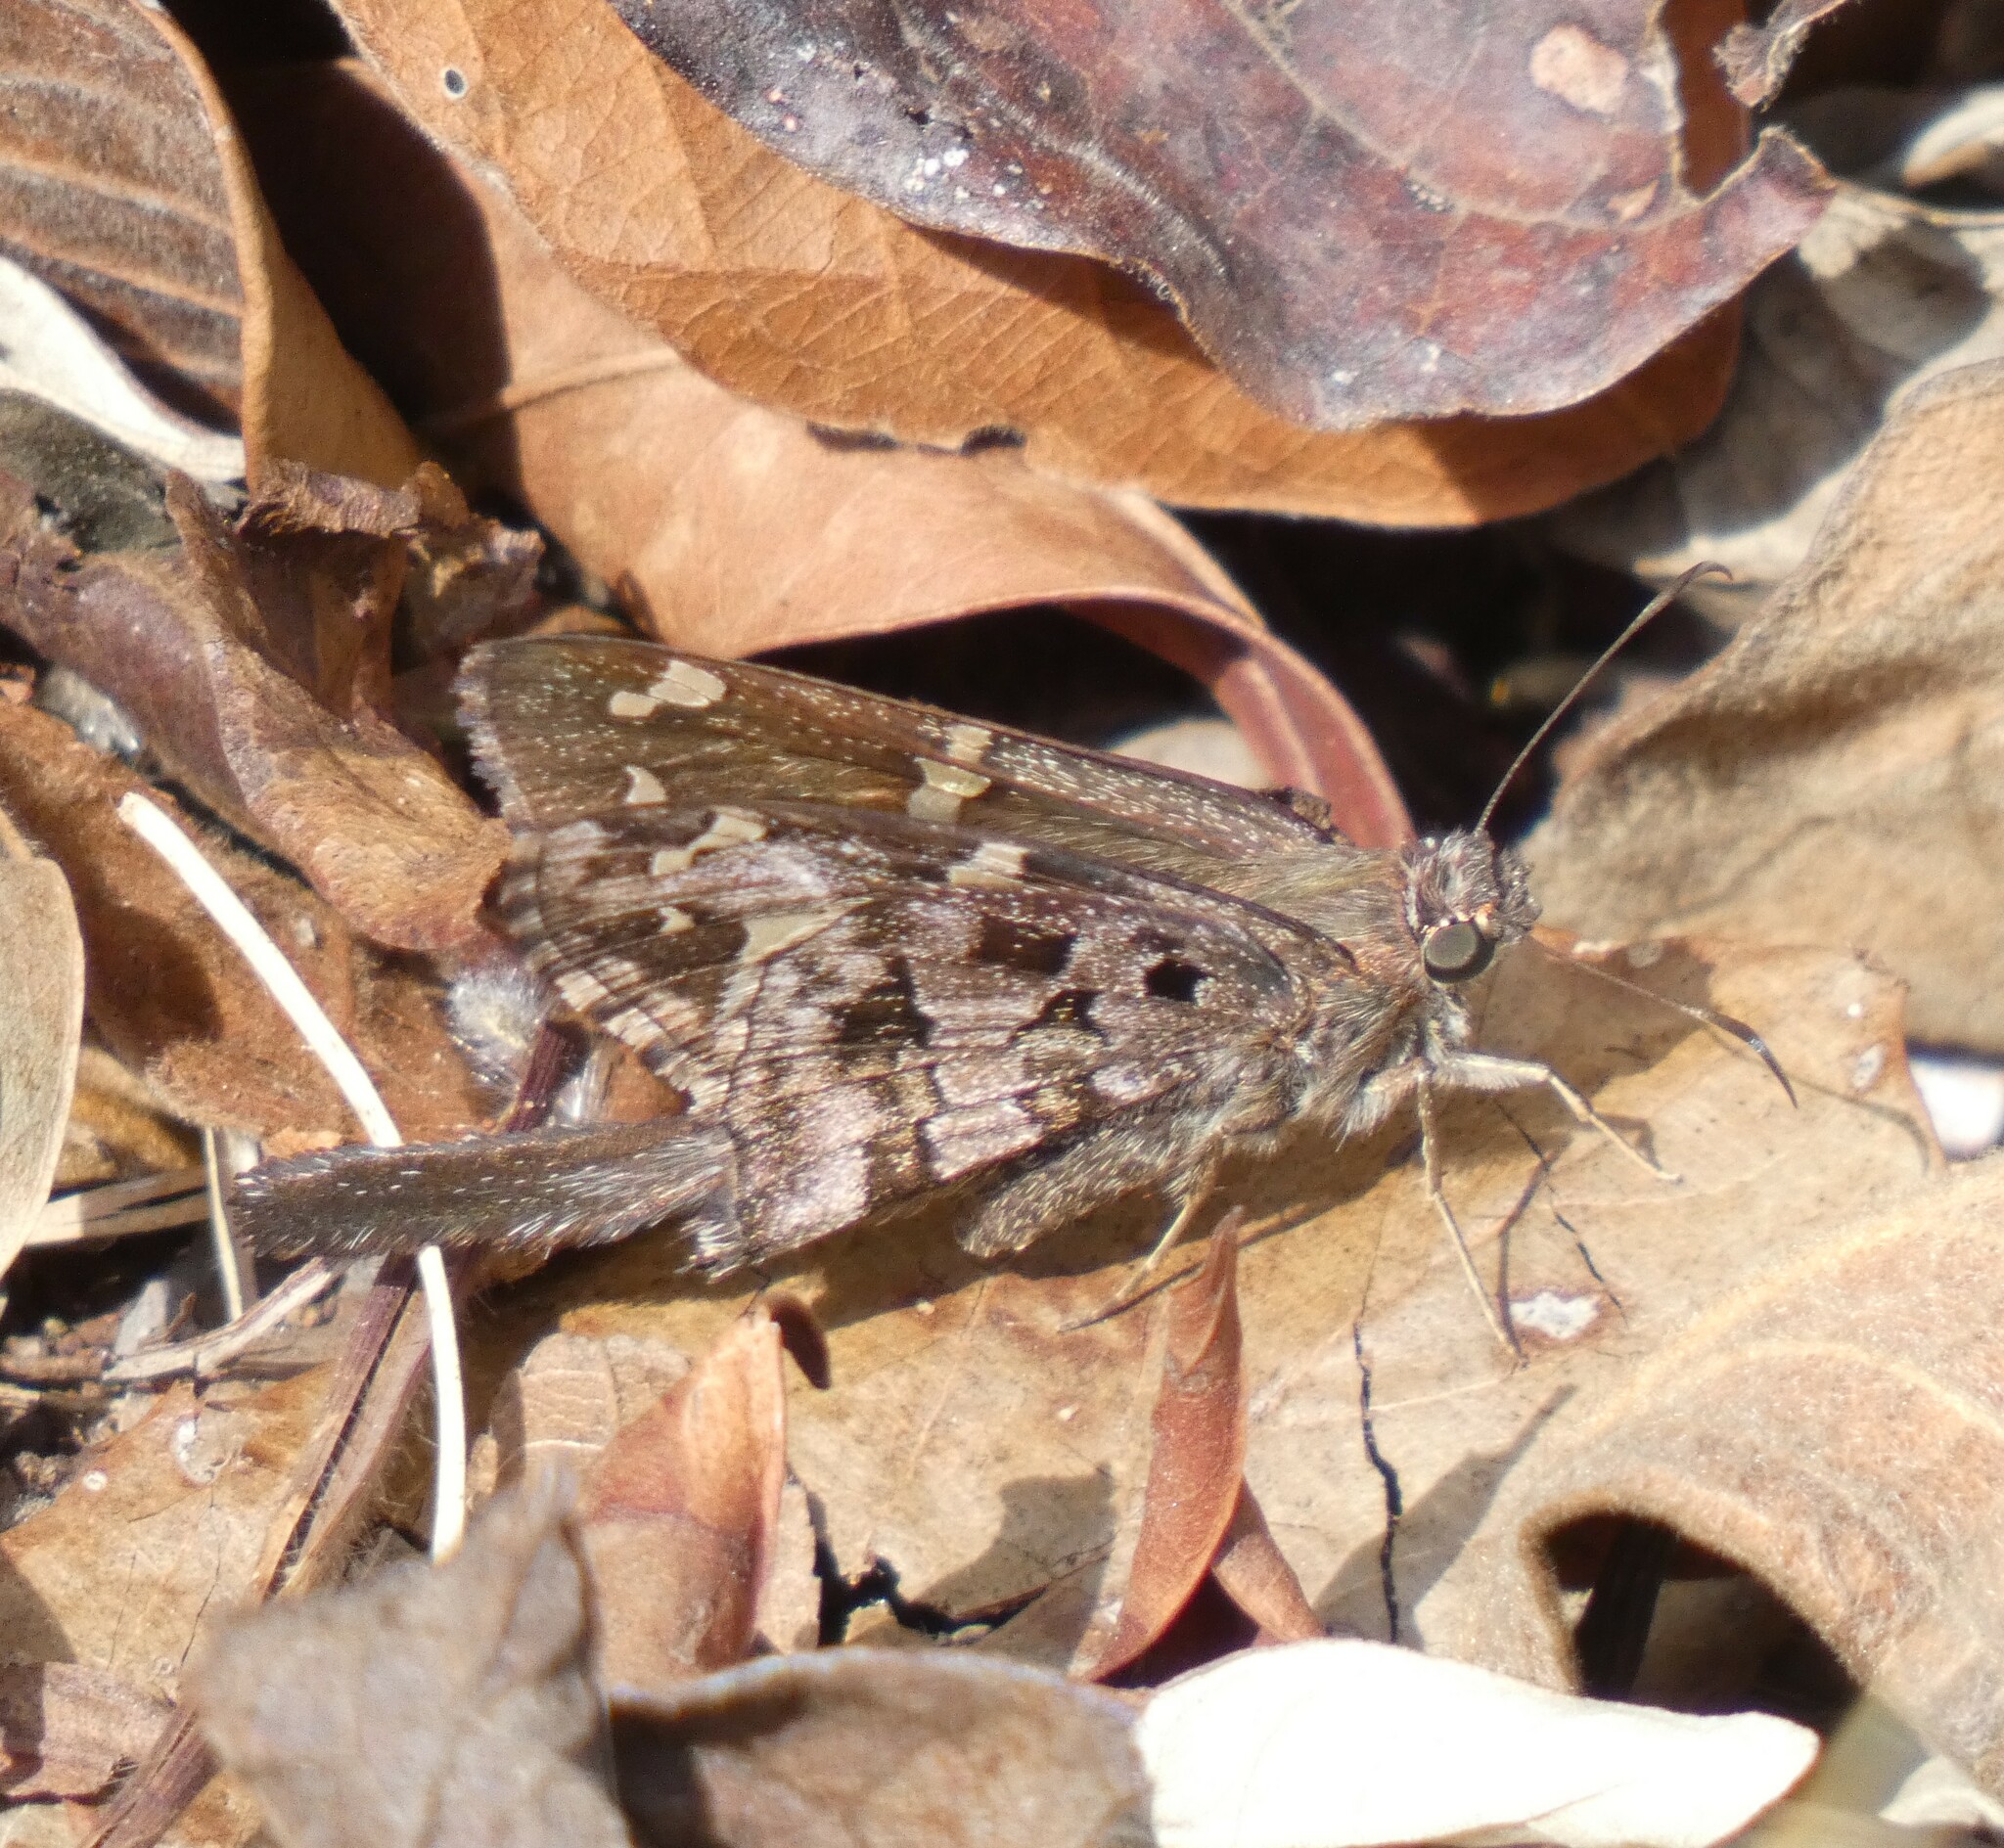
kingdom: Animalia
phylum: Arthropoda
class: Insecta
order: Lepidoptera
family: Hesperiidae
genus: Thorybes
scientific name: Thorybes
